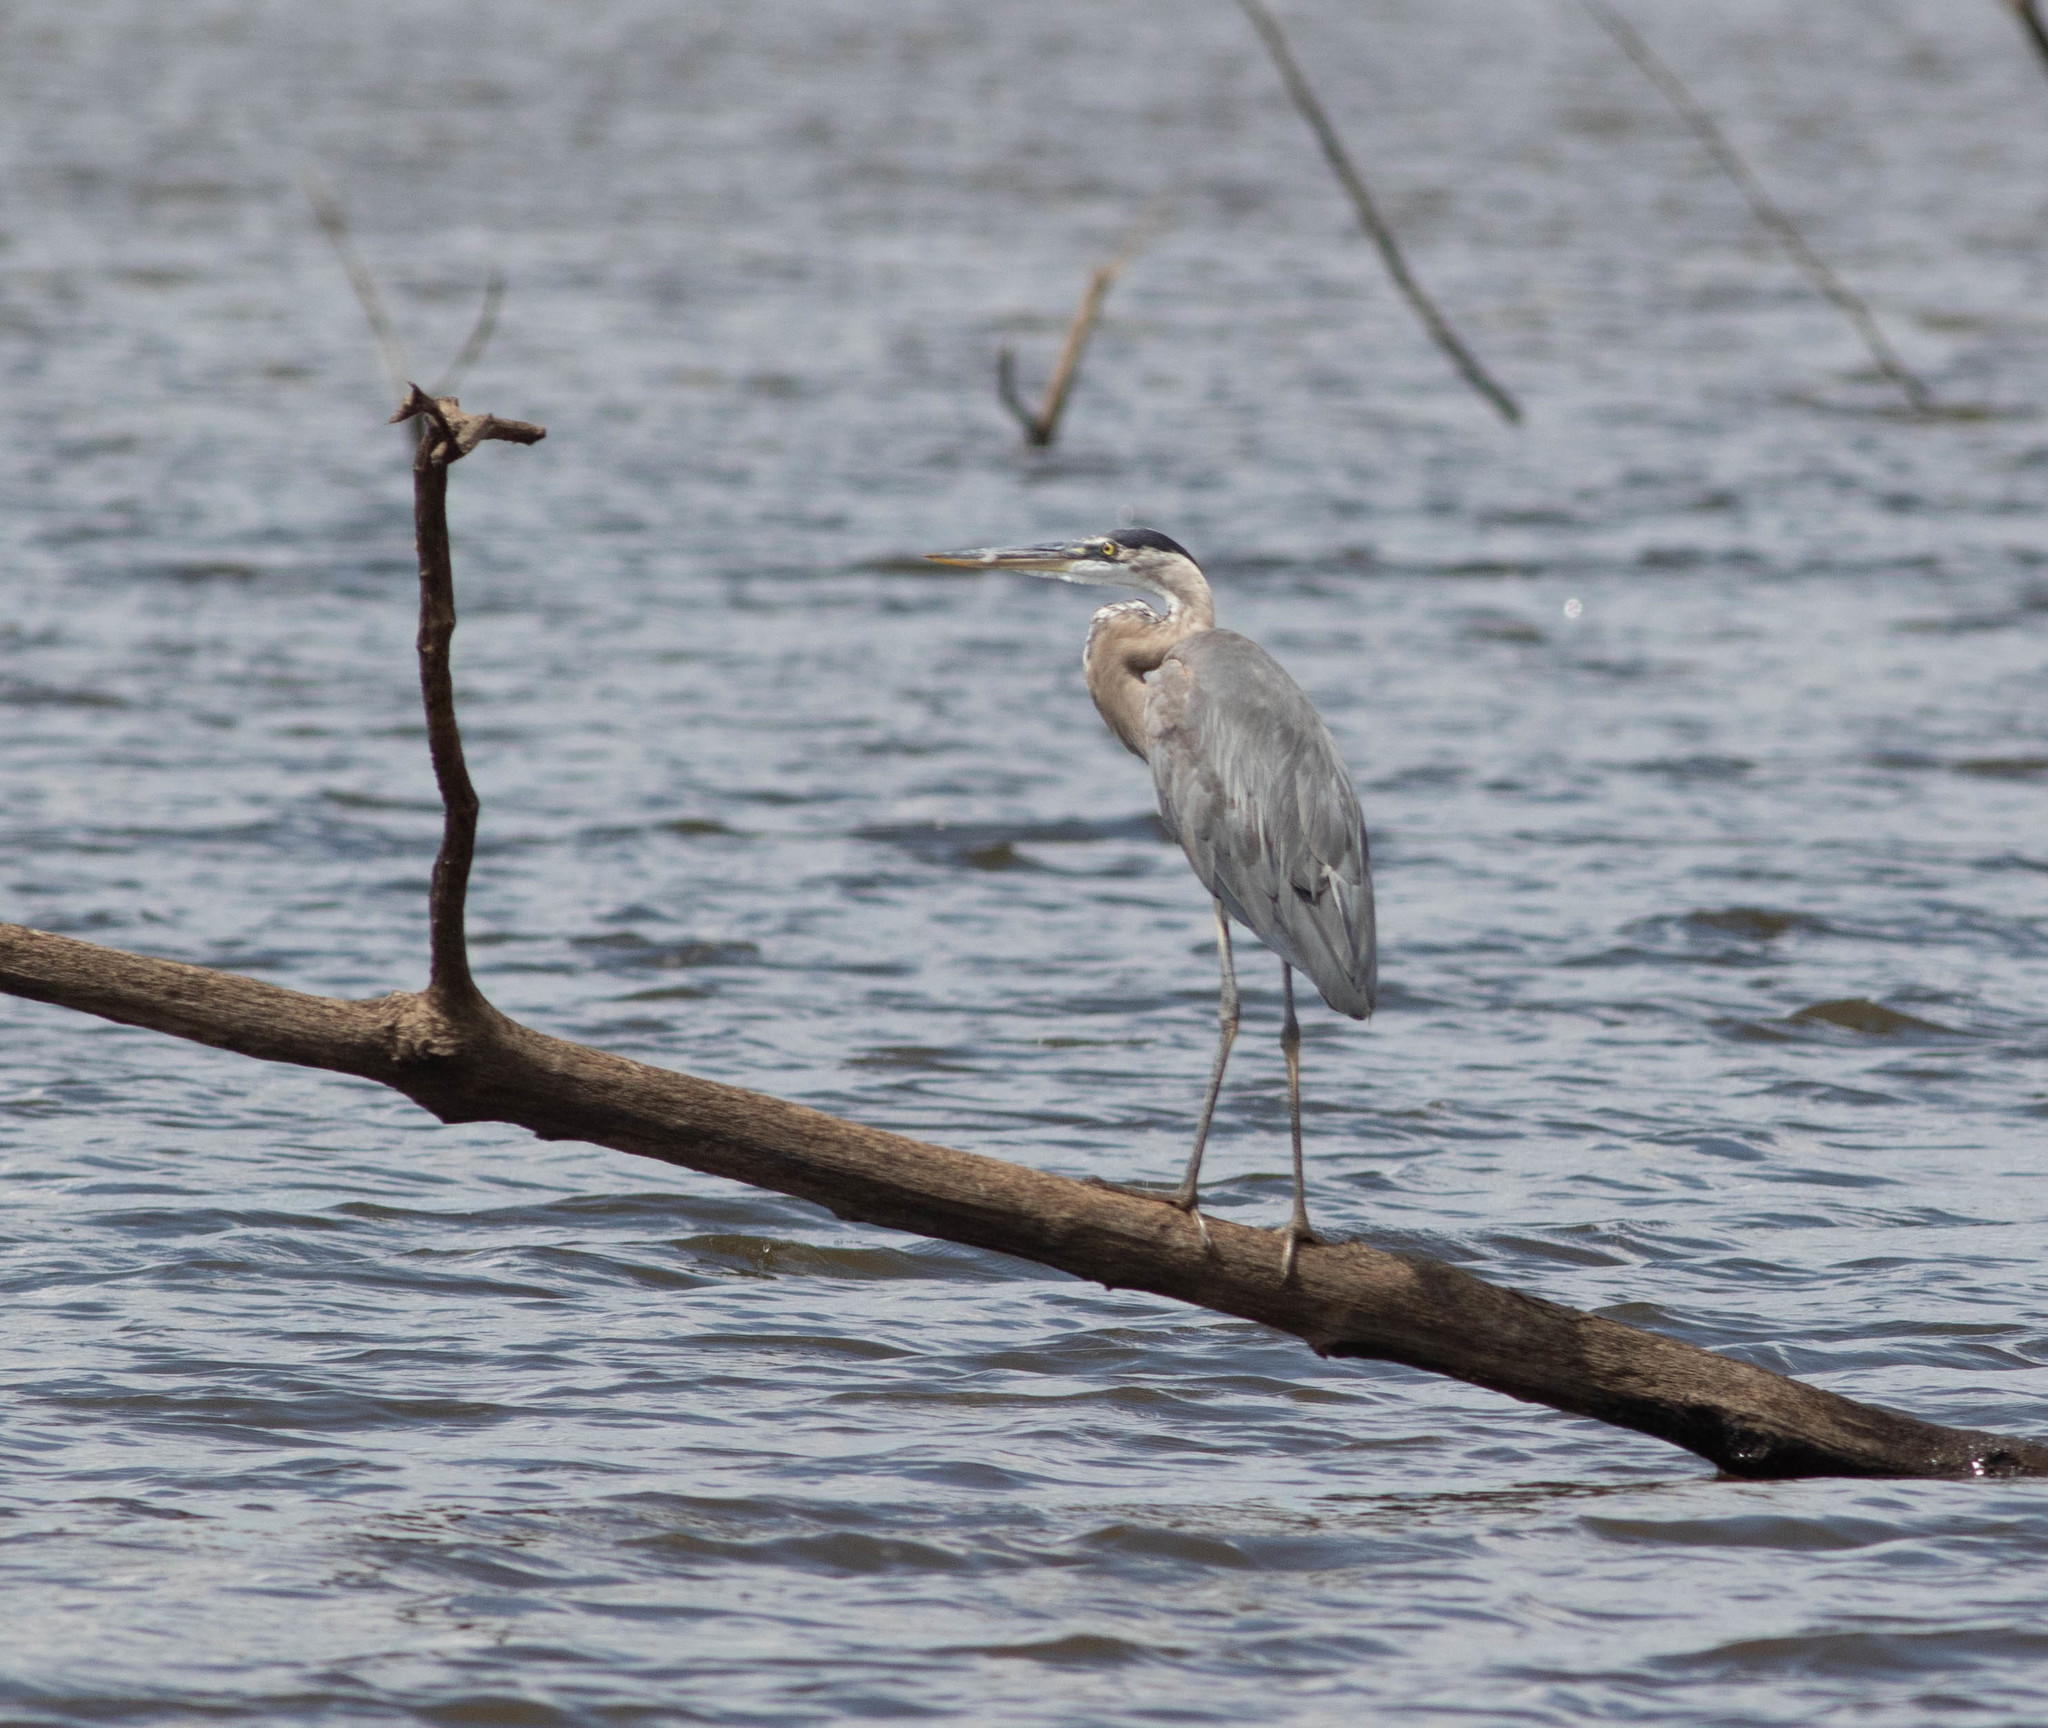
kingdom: Animalia
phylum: Chordata
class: Aves
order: Pelecaniformes
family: Ardeidae
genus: Ardea
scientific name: Ardea herodias
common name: Great blue heron
